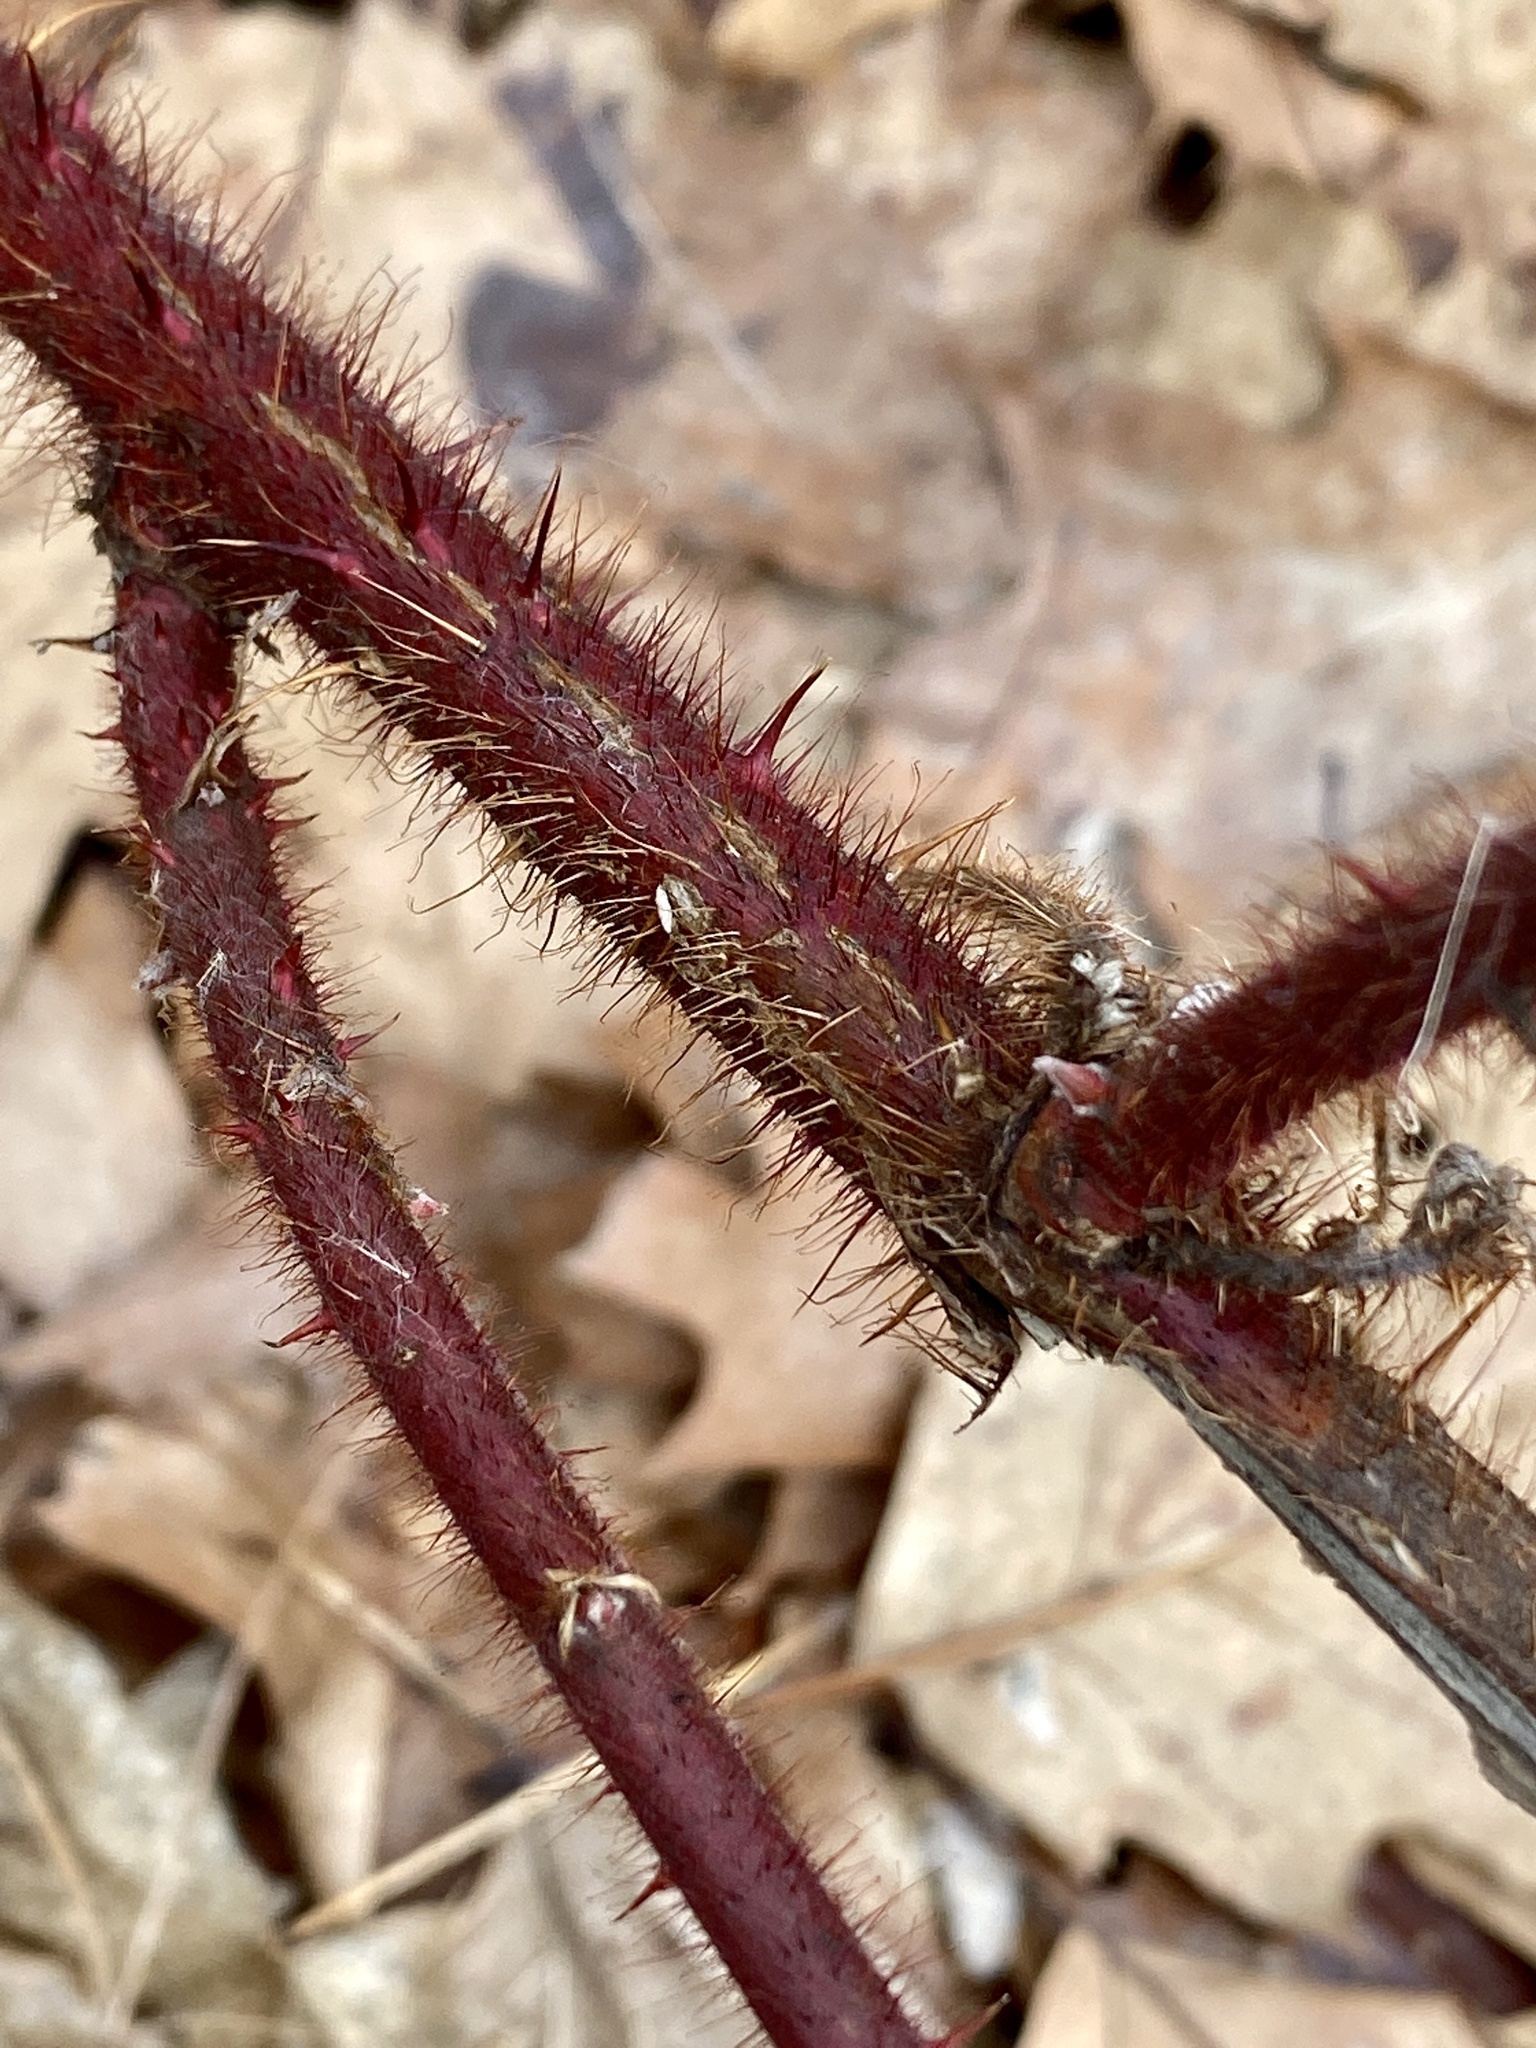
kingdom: Plantae
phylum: Tracheophyta
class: Magnoliopsida
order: Rosales
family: Rosaceae
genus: Rubus
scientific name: Rubus phoenicolasius
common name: Japanese wineberry
